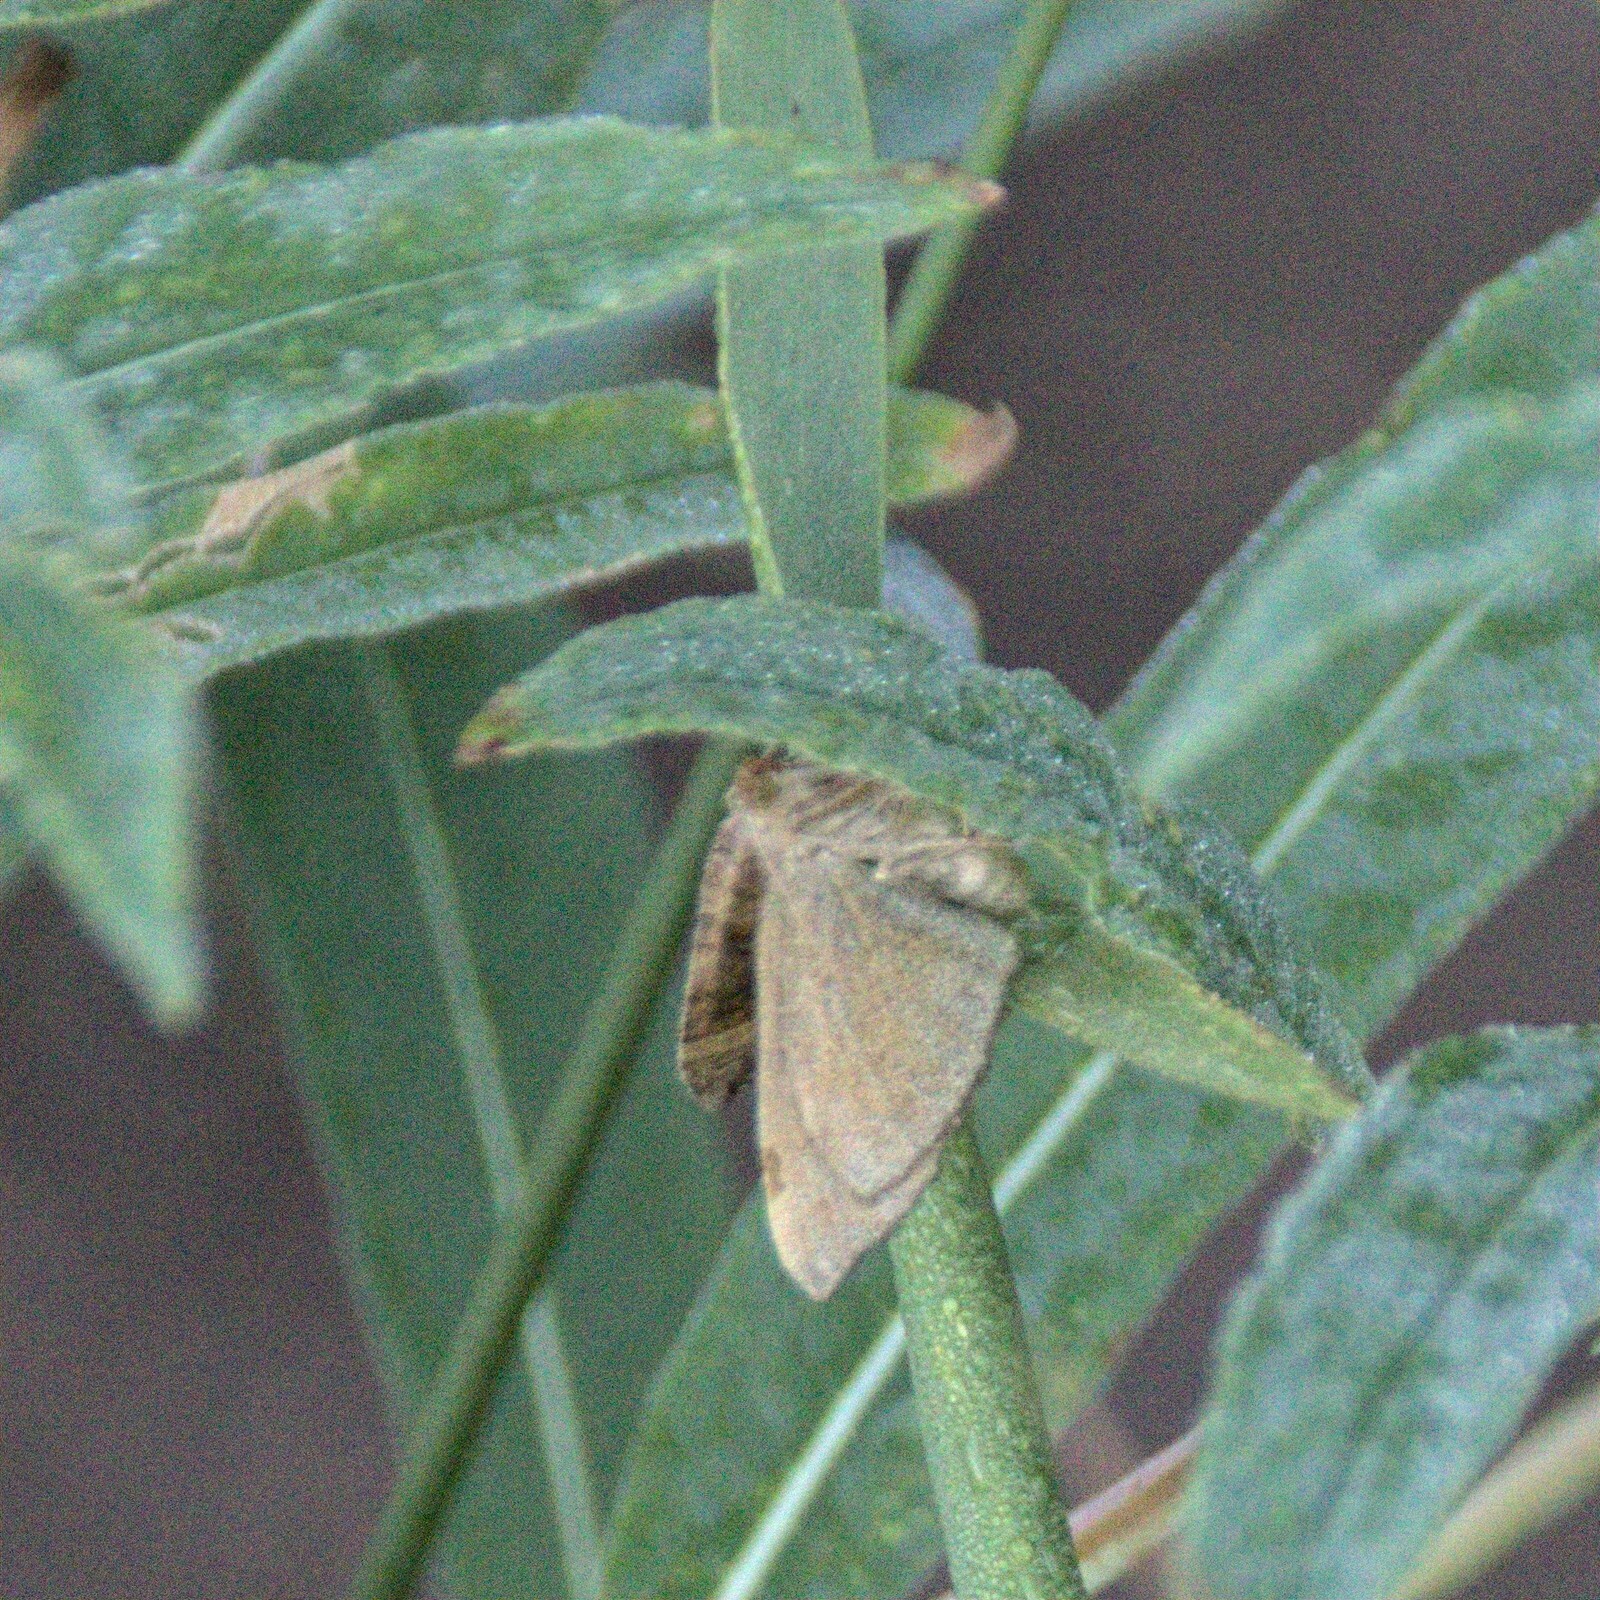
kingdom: Animalia
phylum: Arthropoda
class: Insecta
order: Lepidoptera
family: Geometridae
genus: Scotopteryx
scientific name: Scotopteryx chenopodiata
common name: Shaded broad-bar
